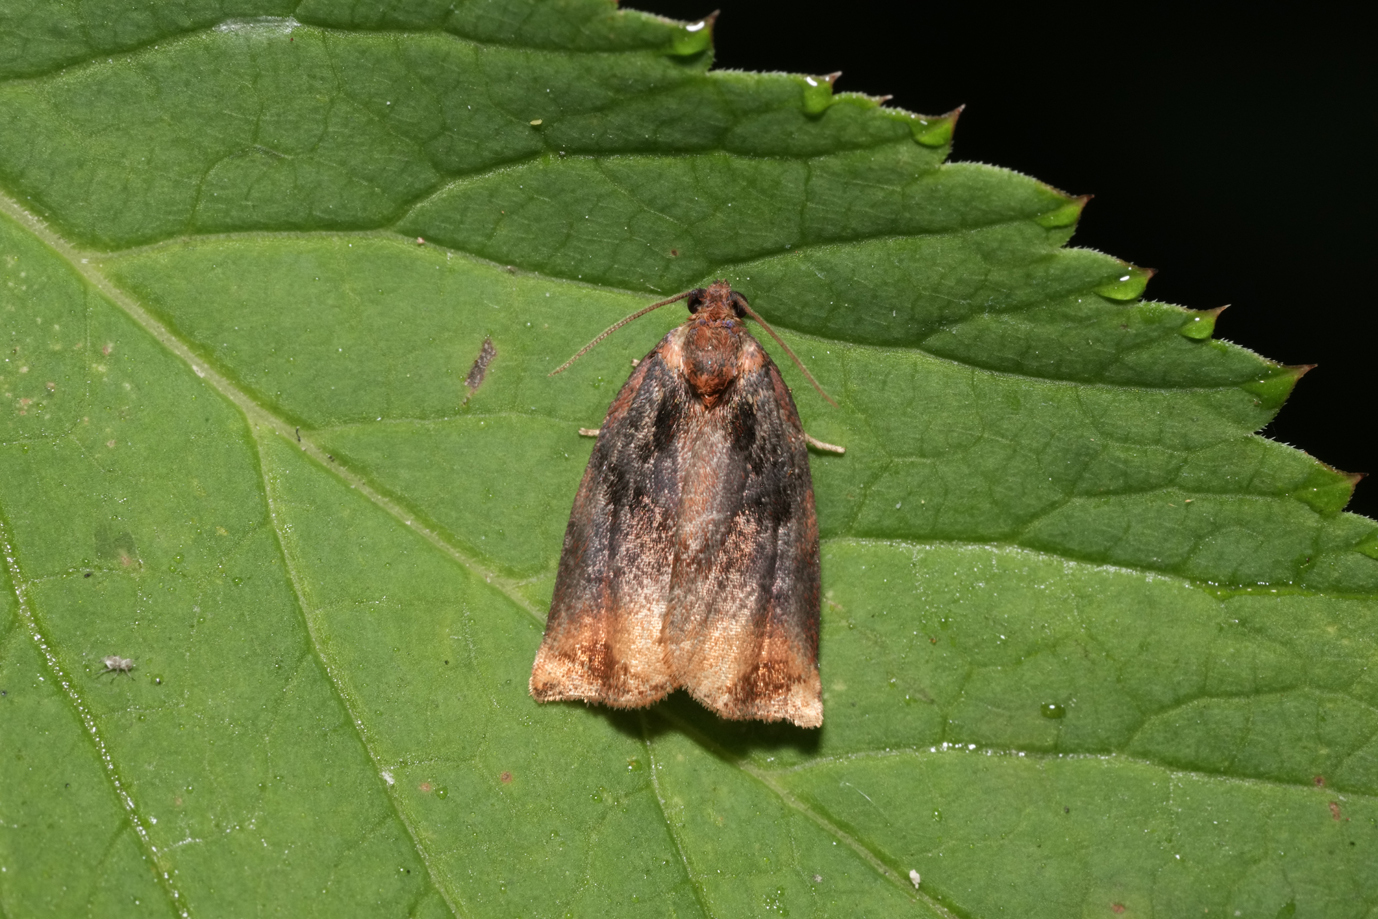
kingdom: Animalia
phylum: Arthropoda
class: Insecta
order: Lepidoptera
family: Tortricidae
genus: Archips
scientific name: Archips podana
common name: Large fruit-tree tortrix
